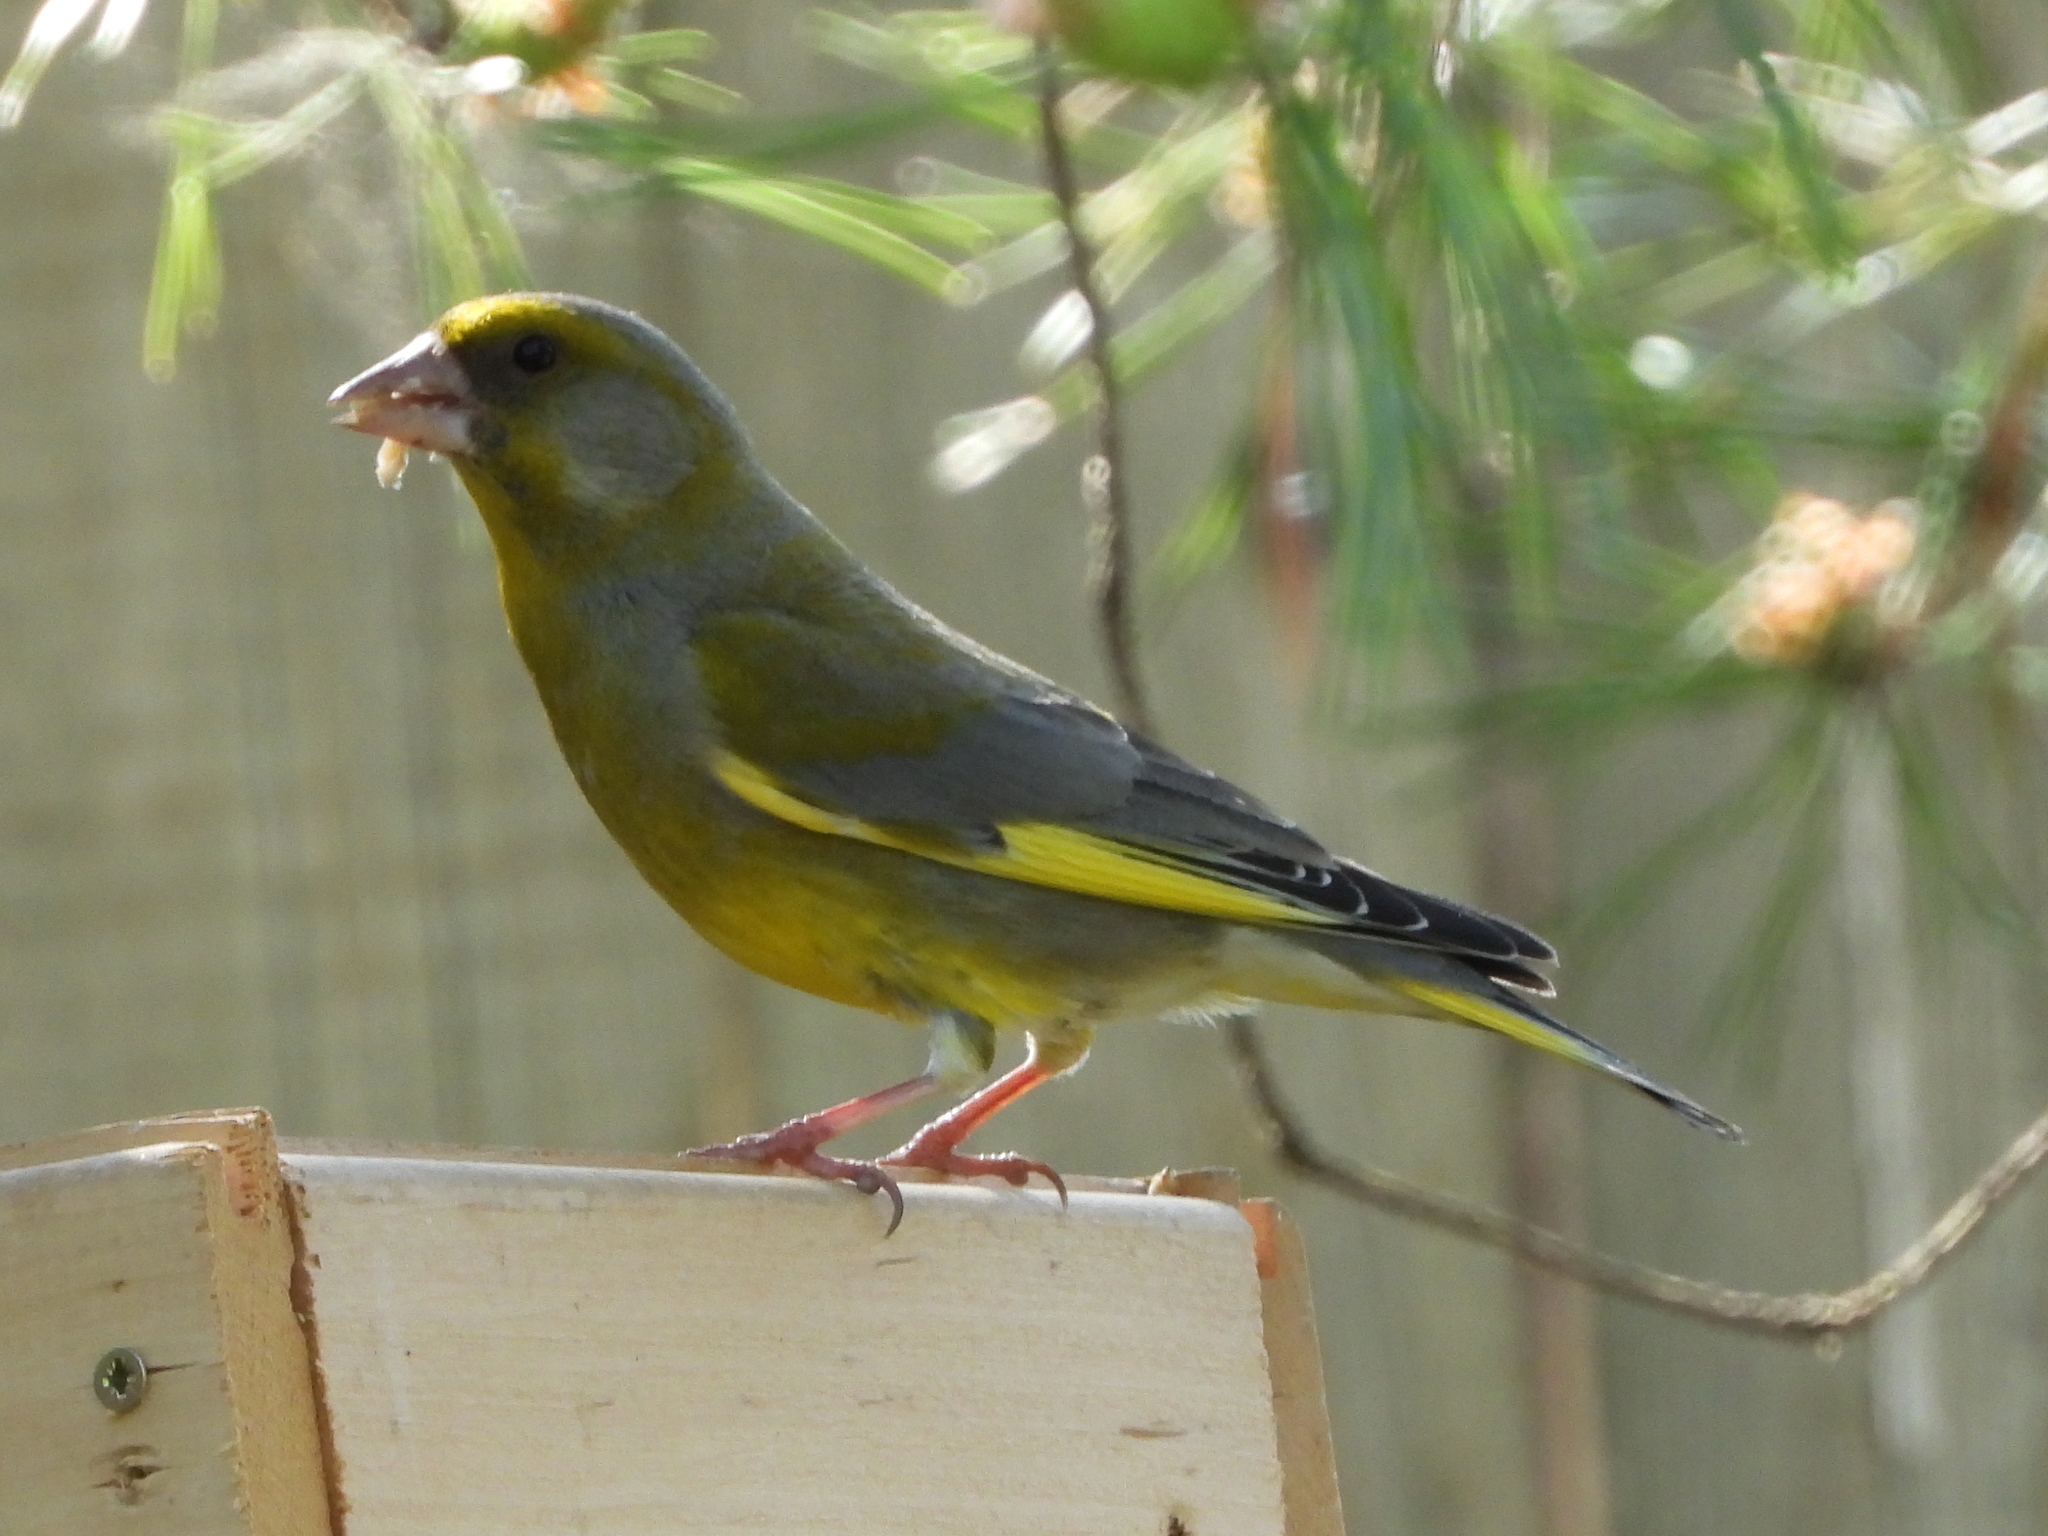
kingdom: Plantae
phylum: Tracheophyta
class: Liliopsida
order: Poales
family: Poaceae
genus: Chloris
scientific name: Chloris chloris
